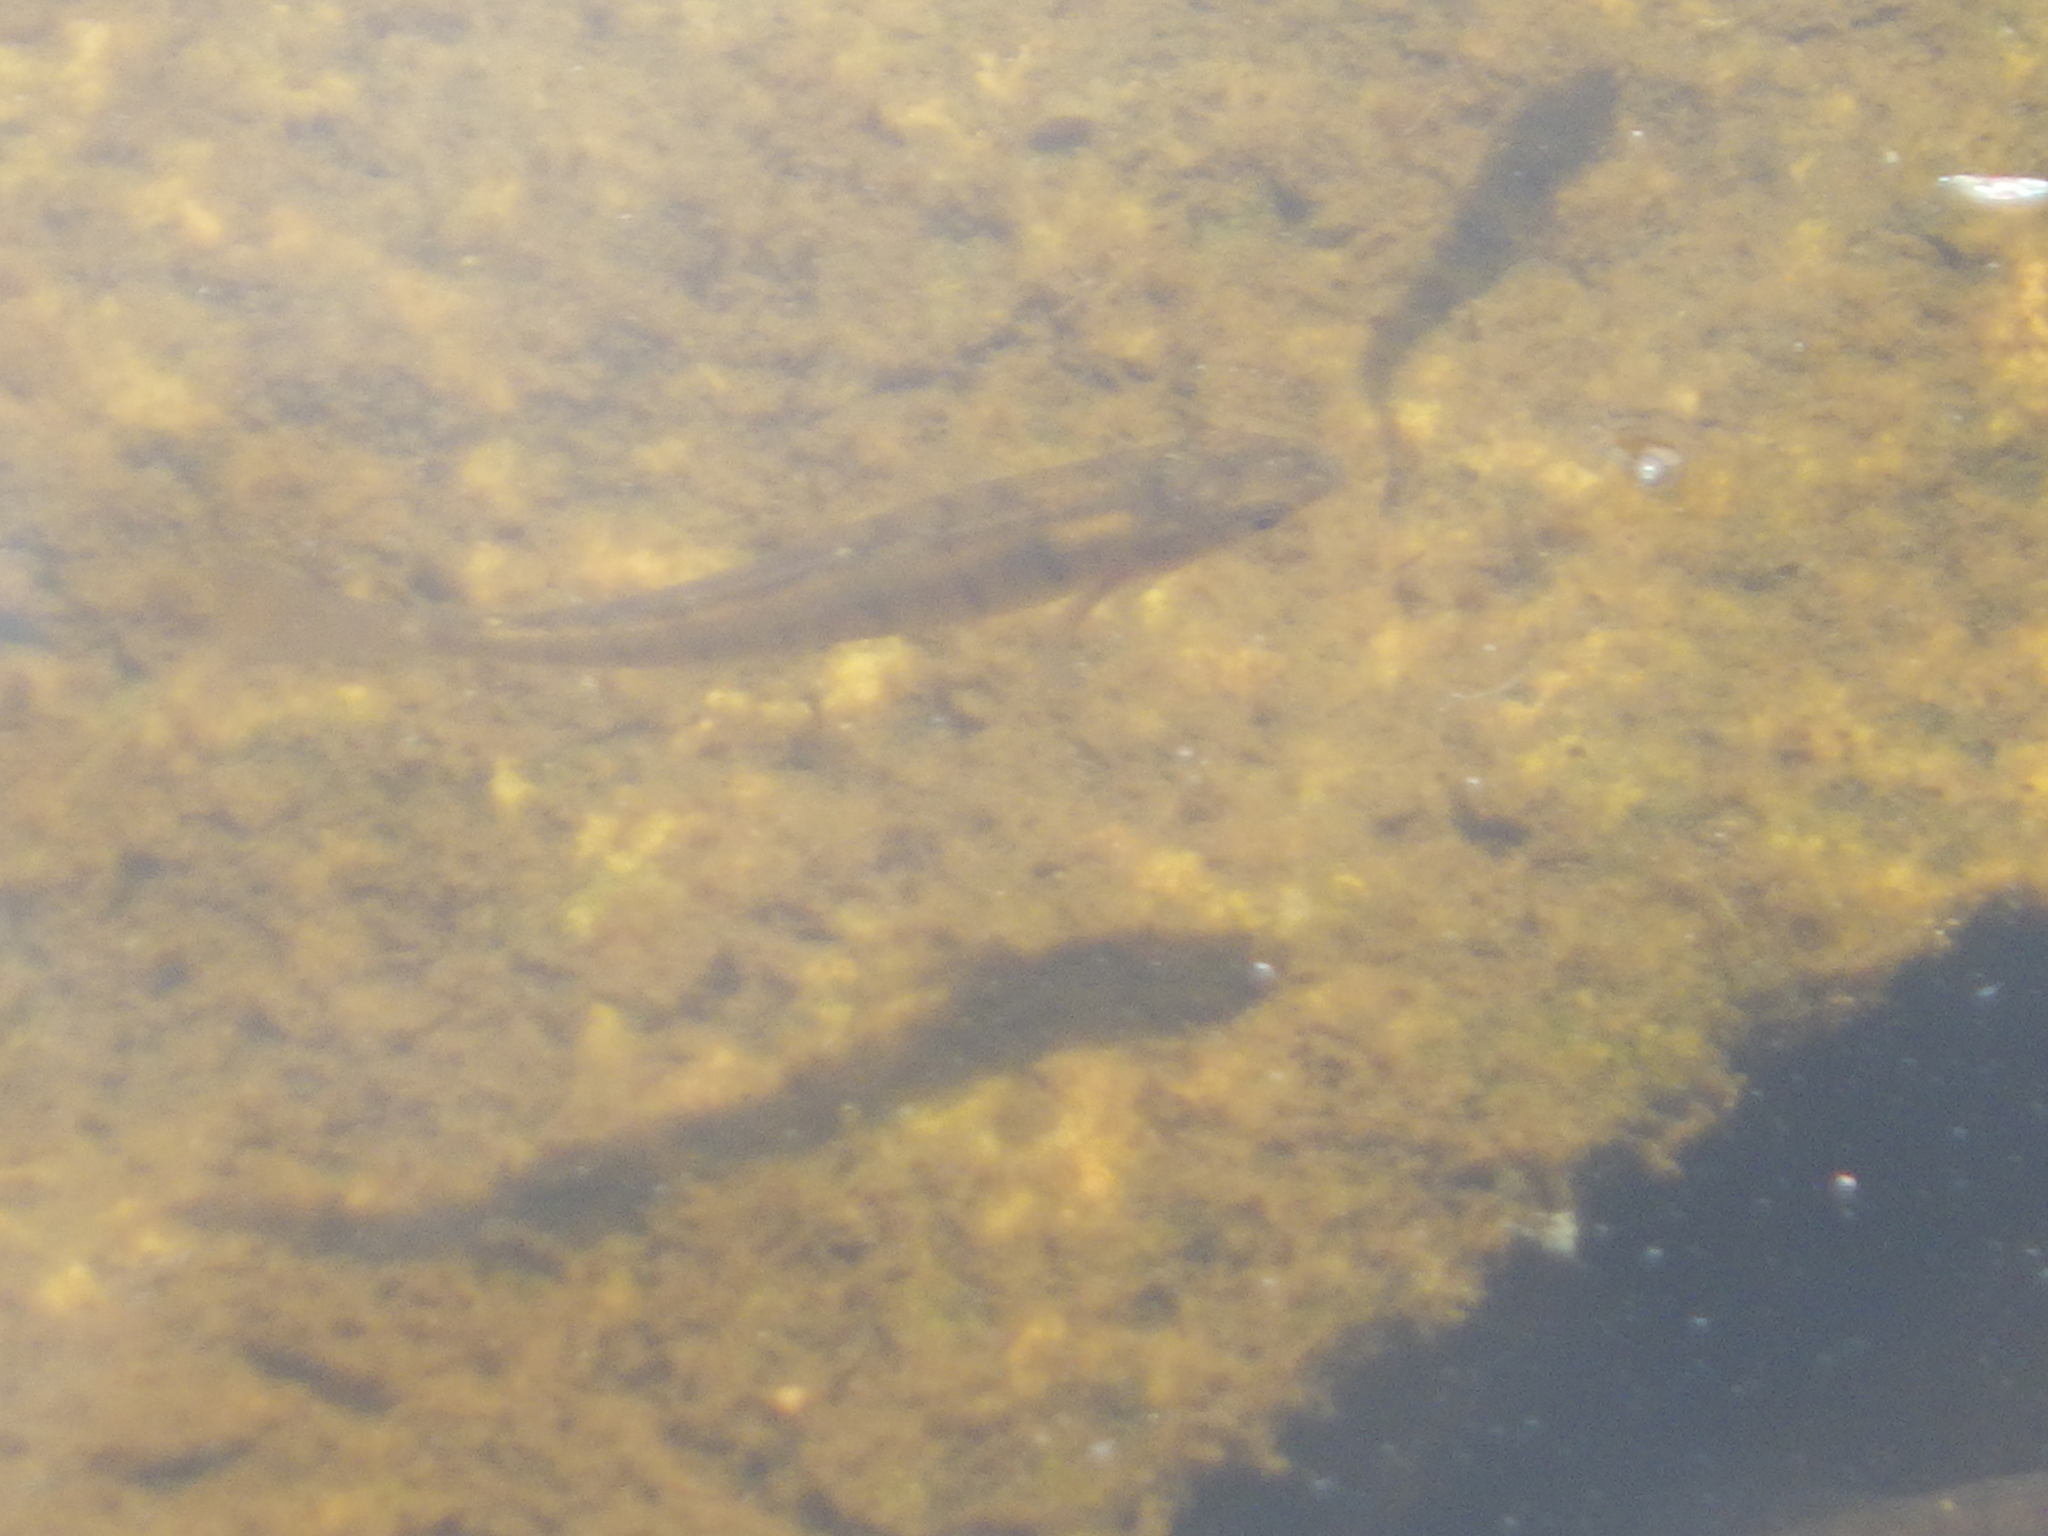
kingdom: Animalia
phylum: Chordata
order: Cyprinodontiformes
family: Fundulidae
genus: Fundulus
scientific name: Fundulus diaphanus
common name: Banded killifish
